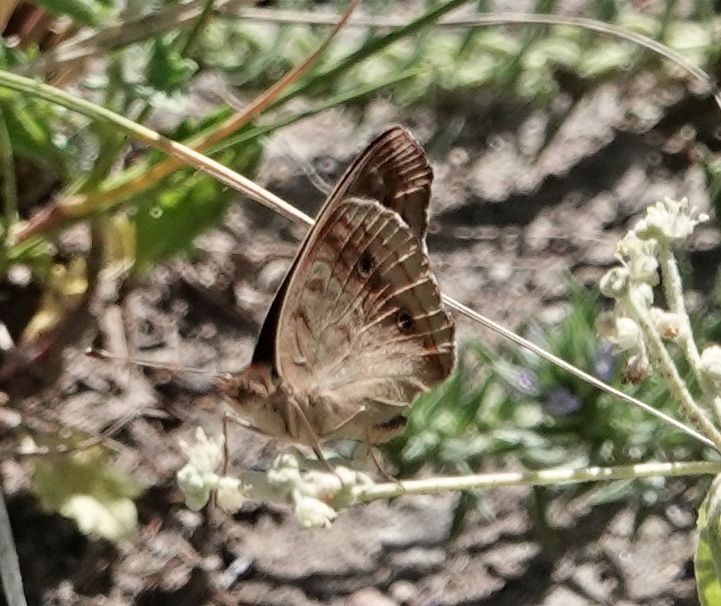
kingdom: Animalia
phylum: Arthropoda
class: Insecta
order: Lepidoptera
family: Nymphalidae
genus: Junonia
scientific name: Junonia coenia
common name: Common buckeye
